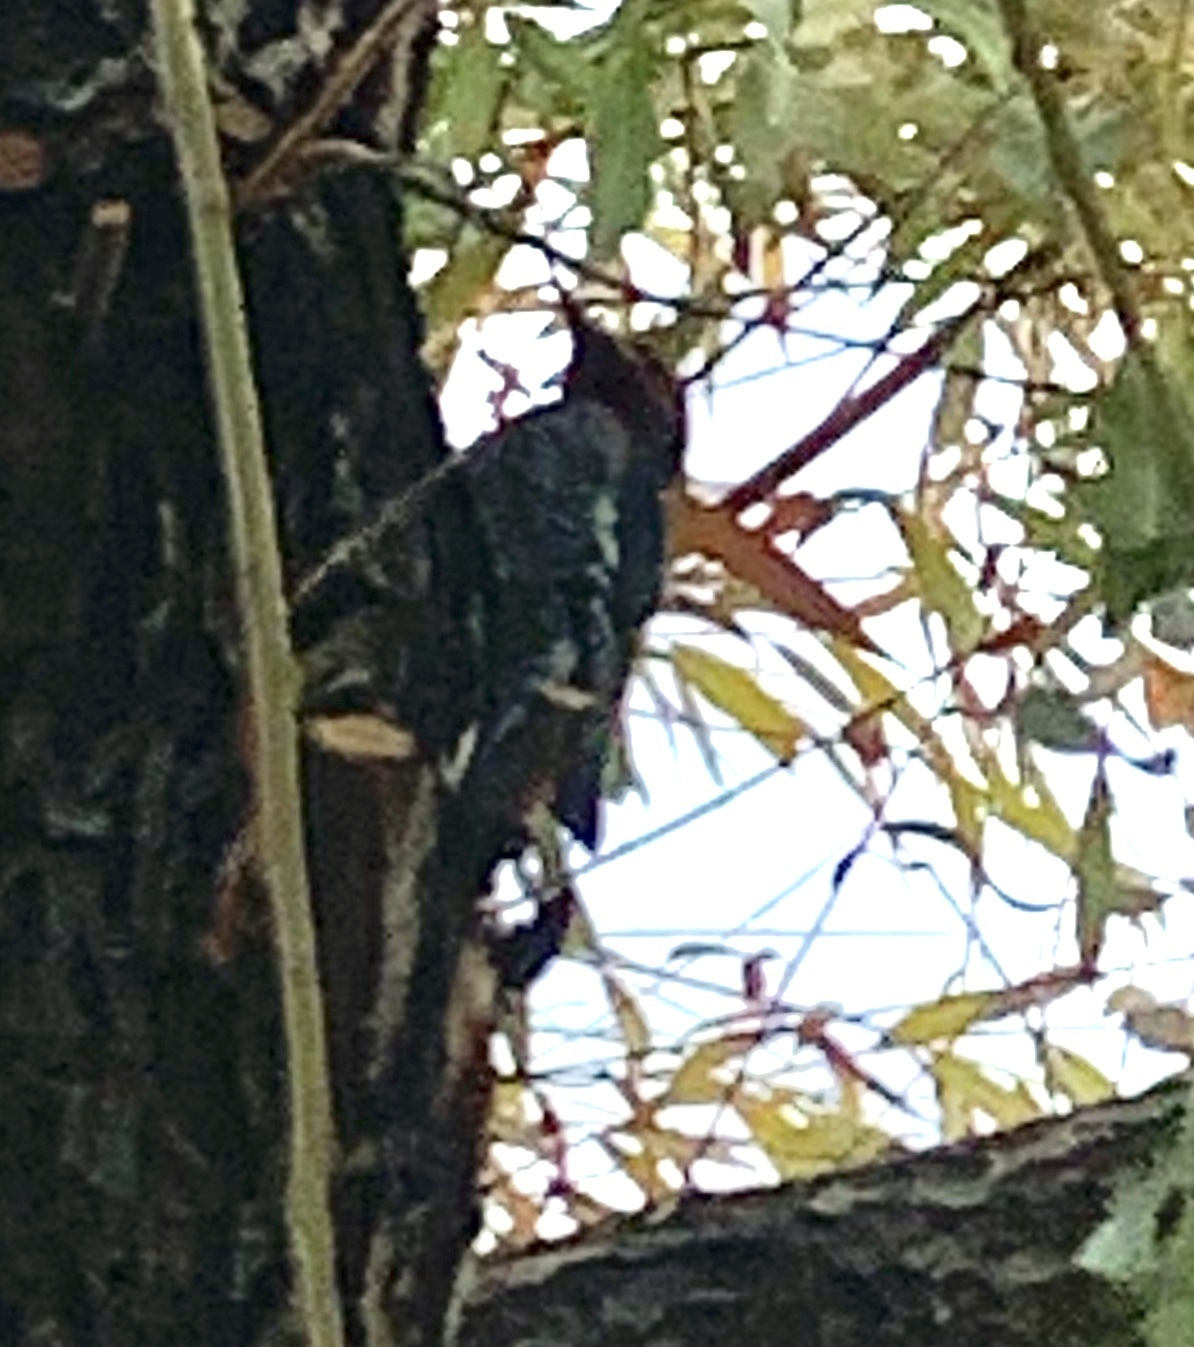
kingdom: Animalia
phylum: Chordata
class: Aves
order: Piciformes
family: Picidae
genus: Sphyrapicus
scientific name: Sphyrapicus ruber
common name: Red-breasted sapsucker
